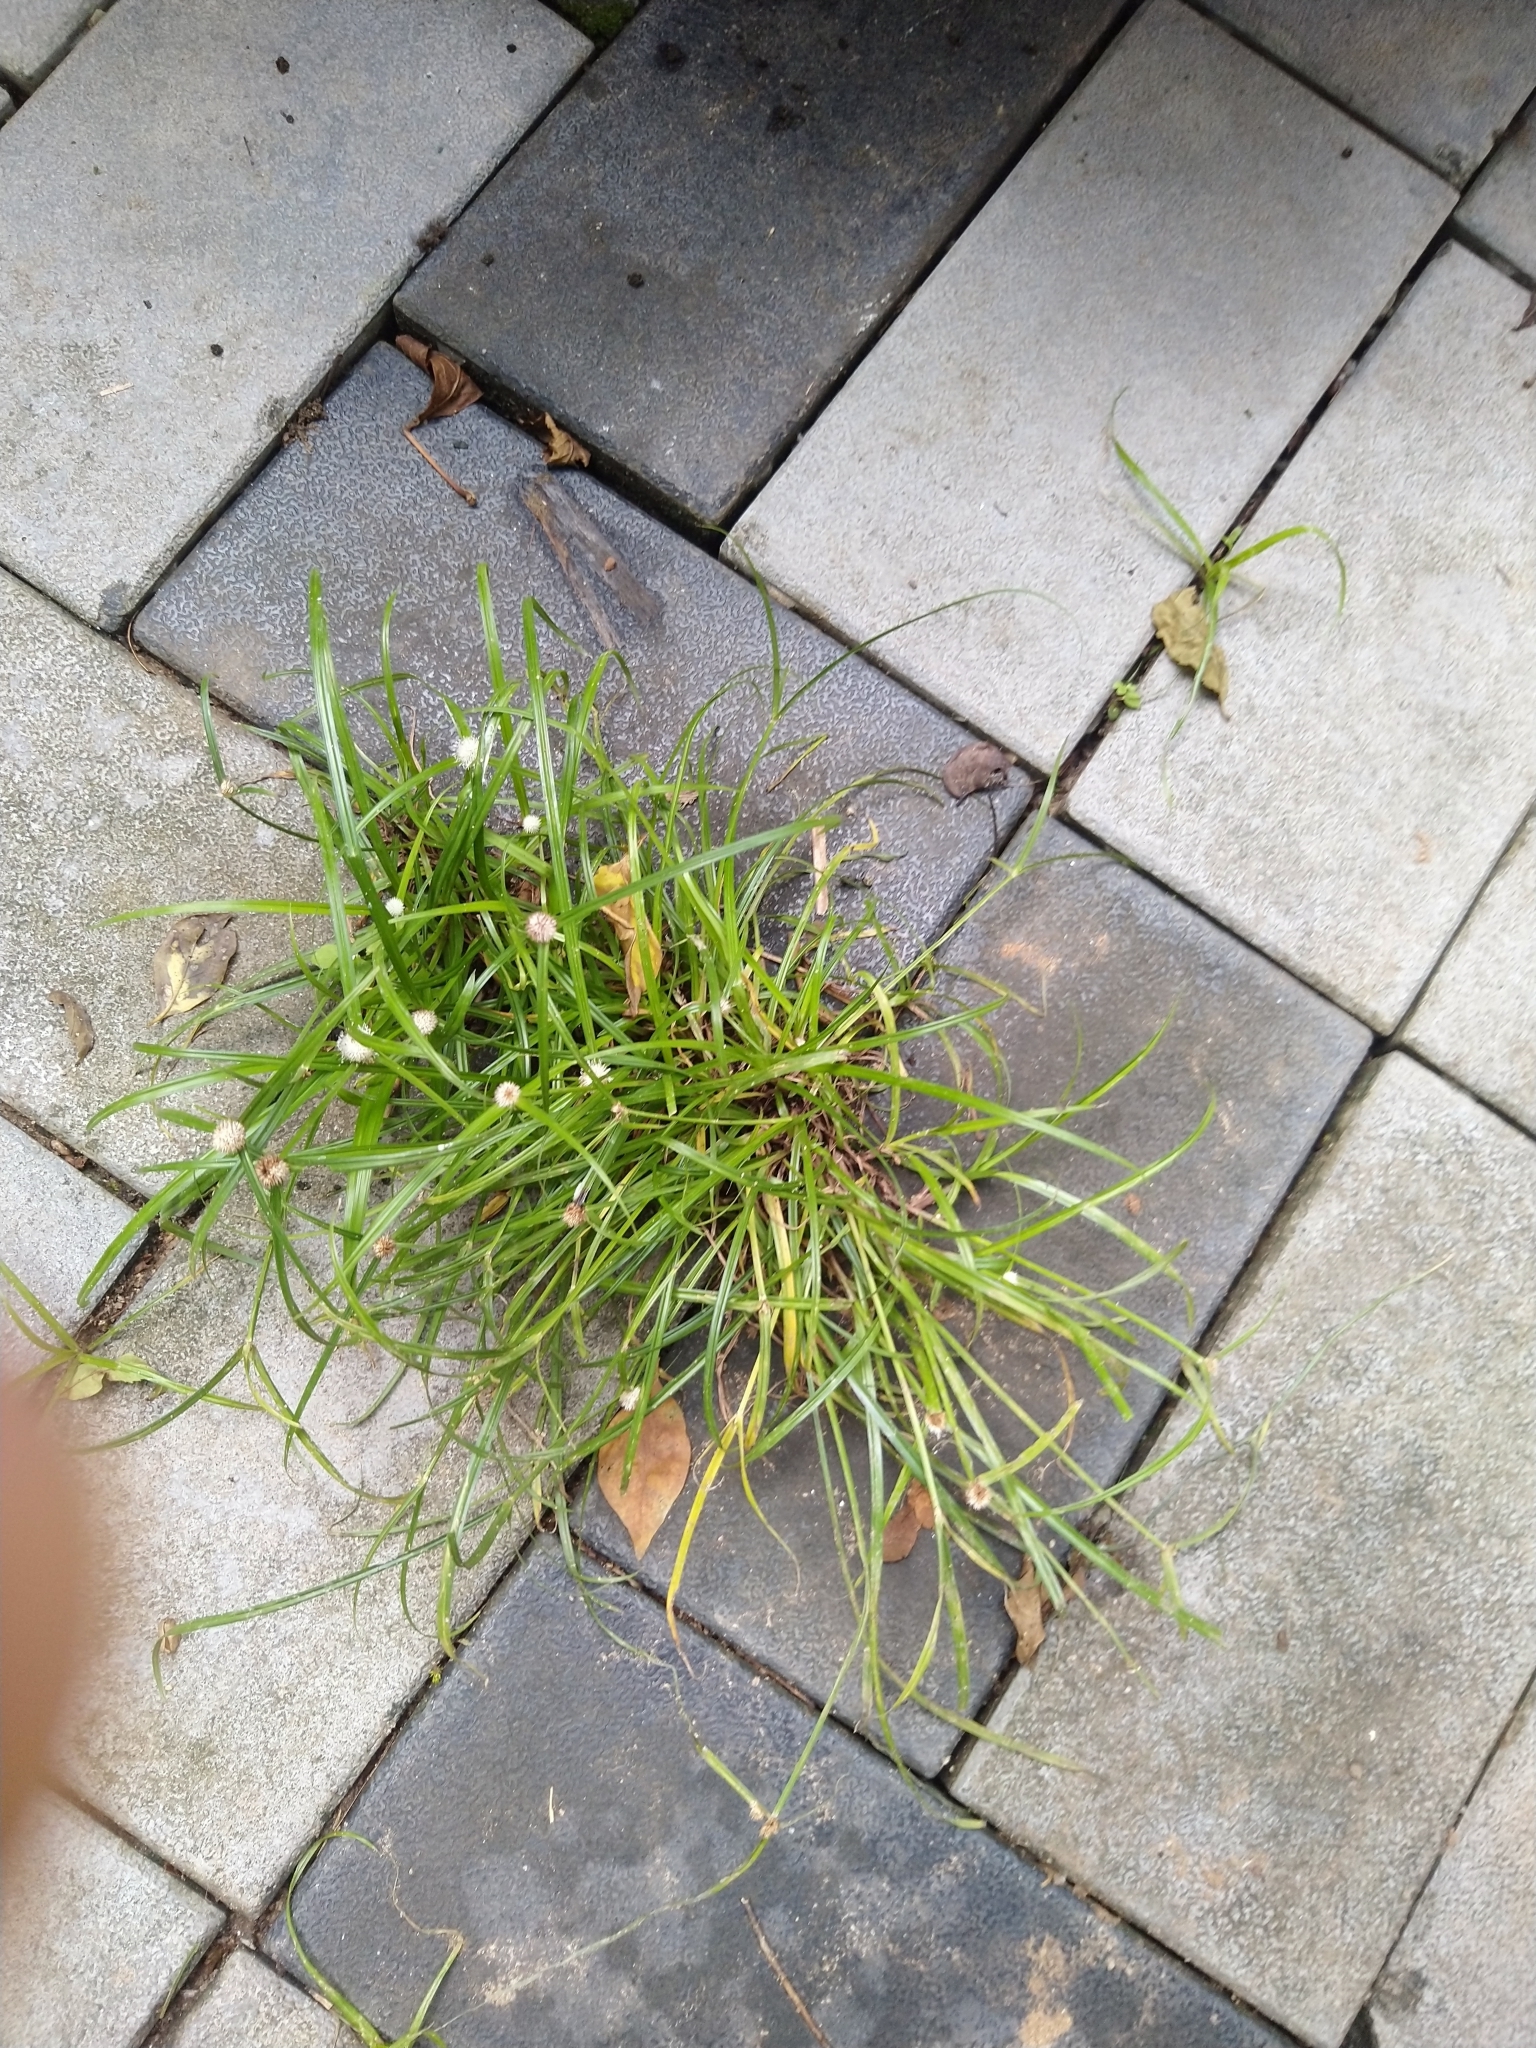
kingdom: Plantae
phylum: Tracheophyta
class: Liliopsida
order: Poales
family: Cyperaceae
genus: Cyperus
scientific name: Cyperus mindorensis
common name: Flatsedge
